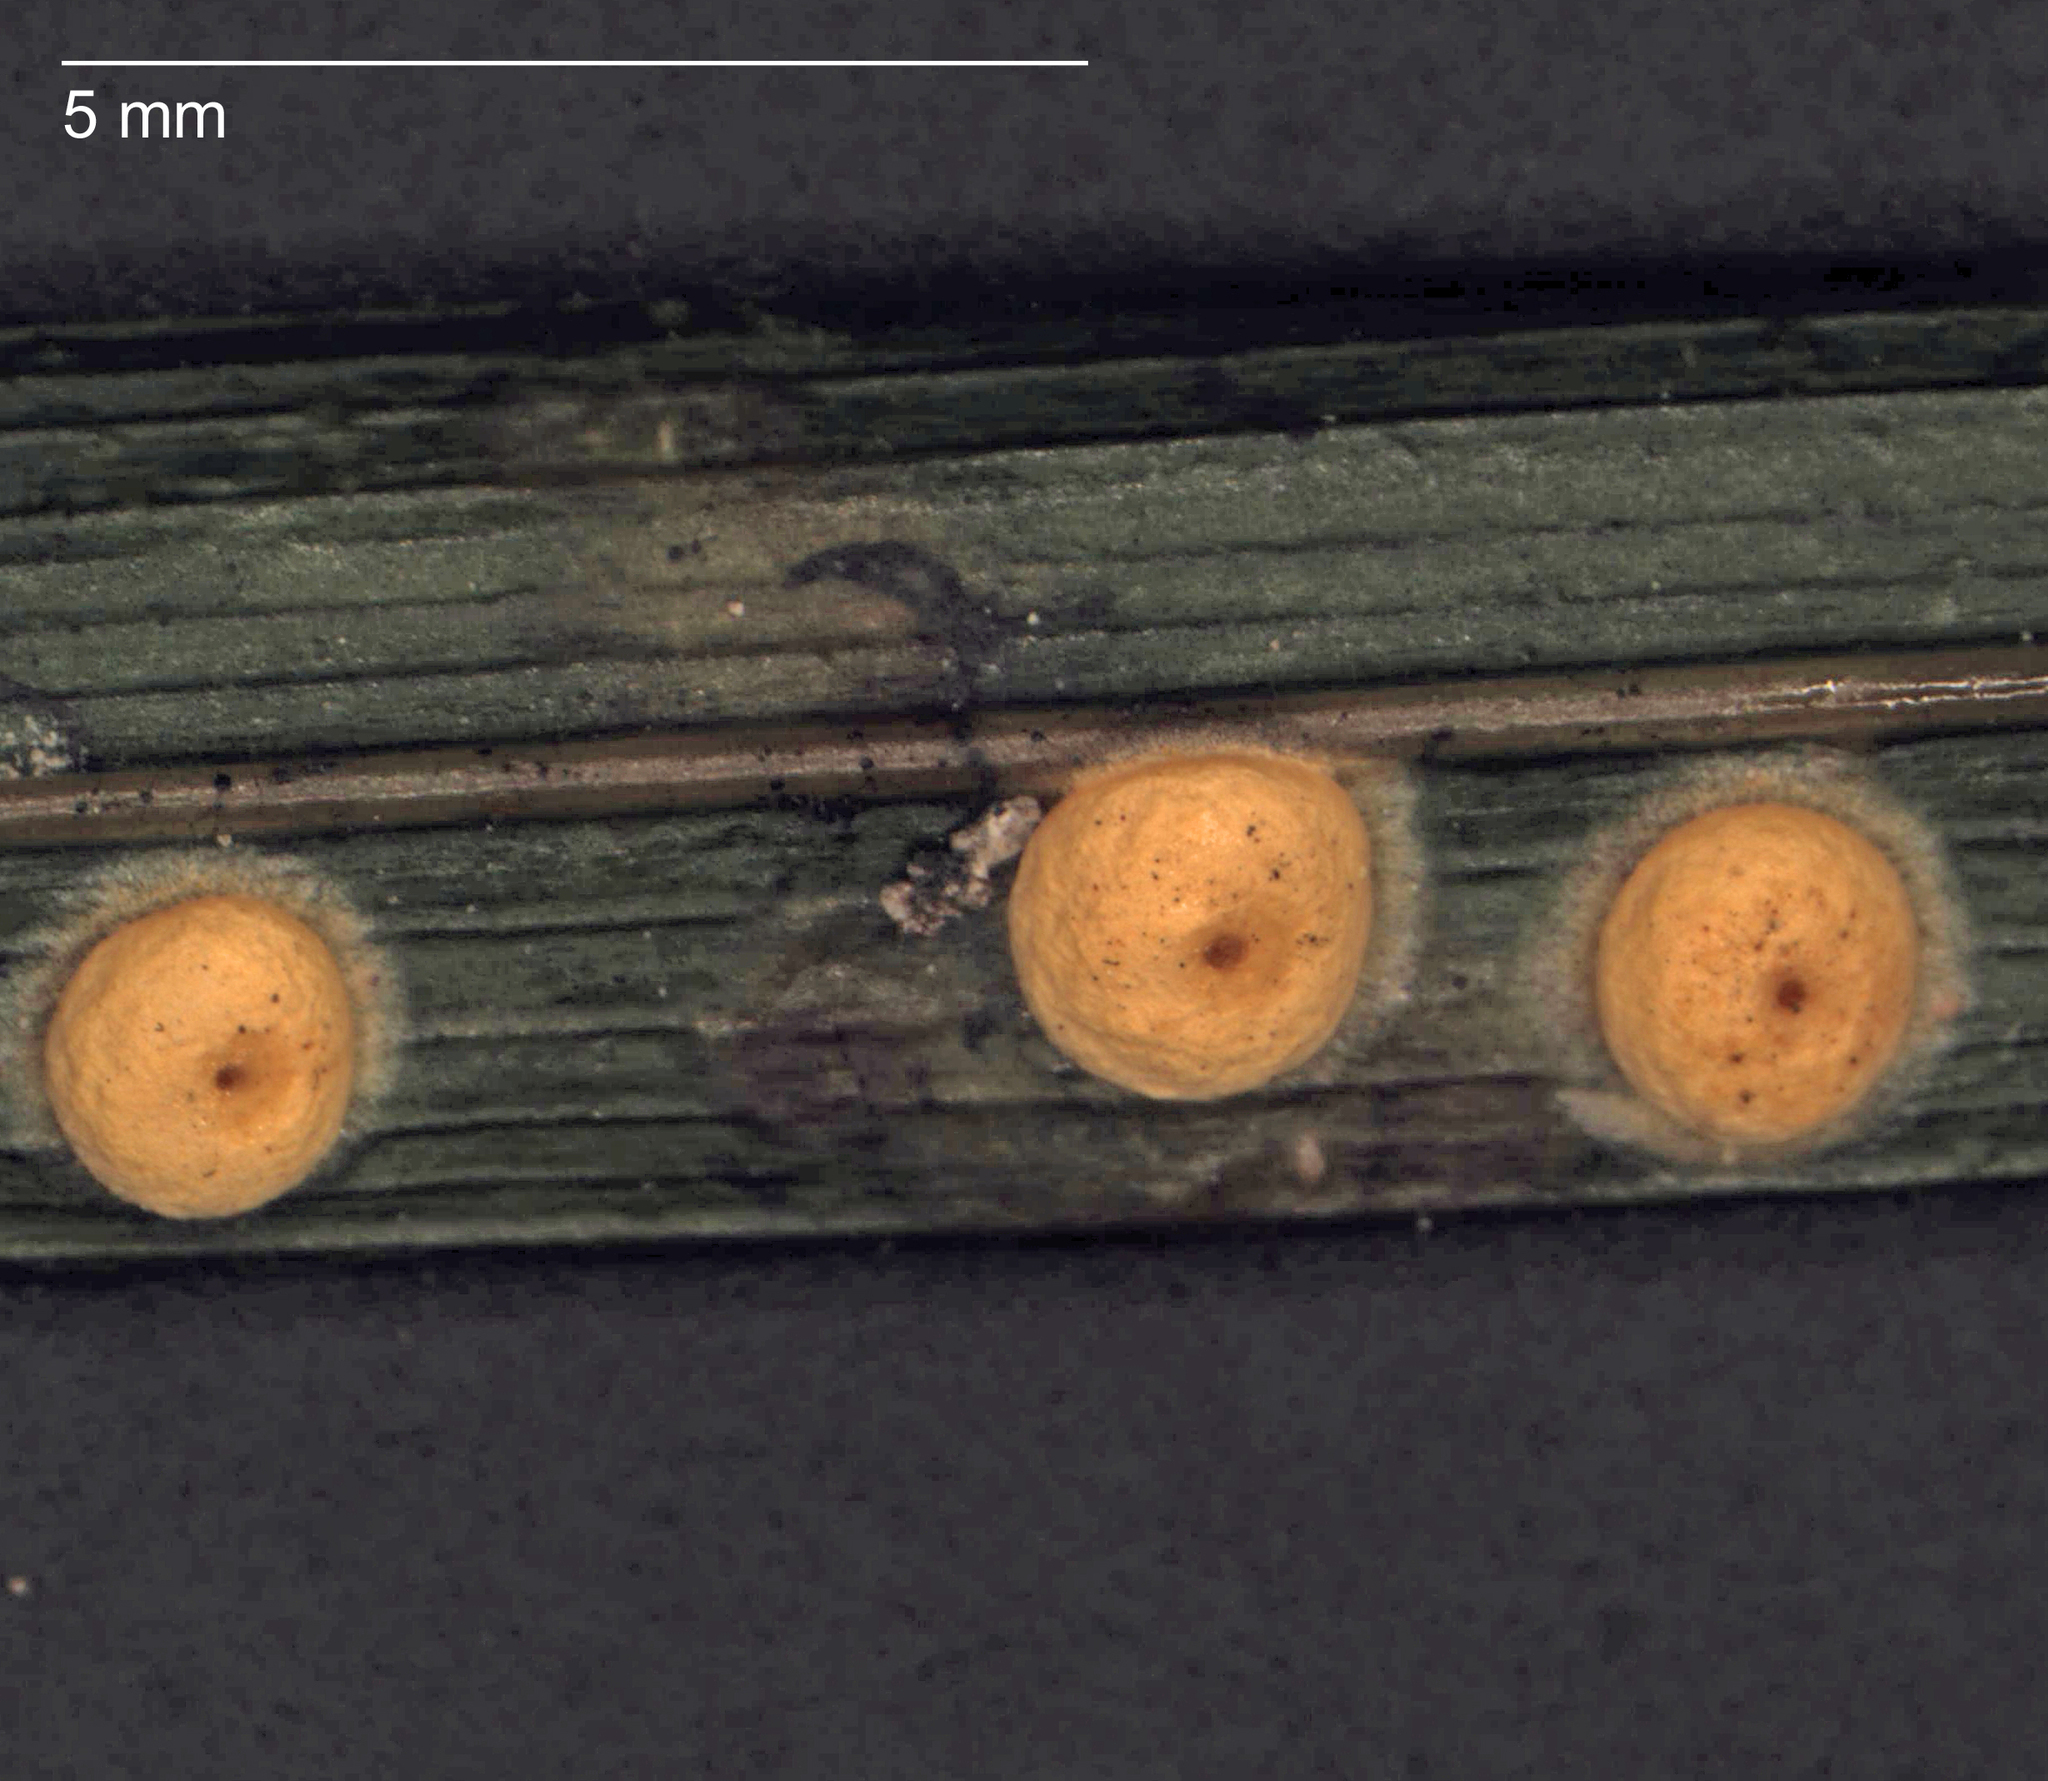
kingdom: Fungi
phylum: Ascomycota
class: Sordariomycetes
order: Hypocreales
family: Clavicipitaceae
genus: Hypocrella
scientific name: Hypocrella
